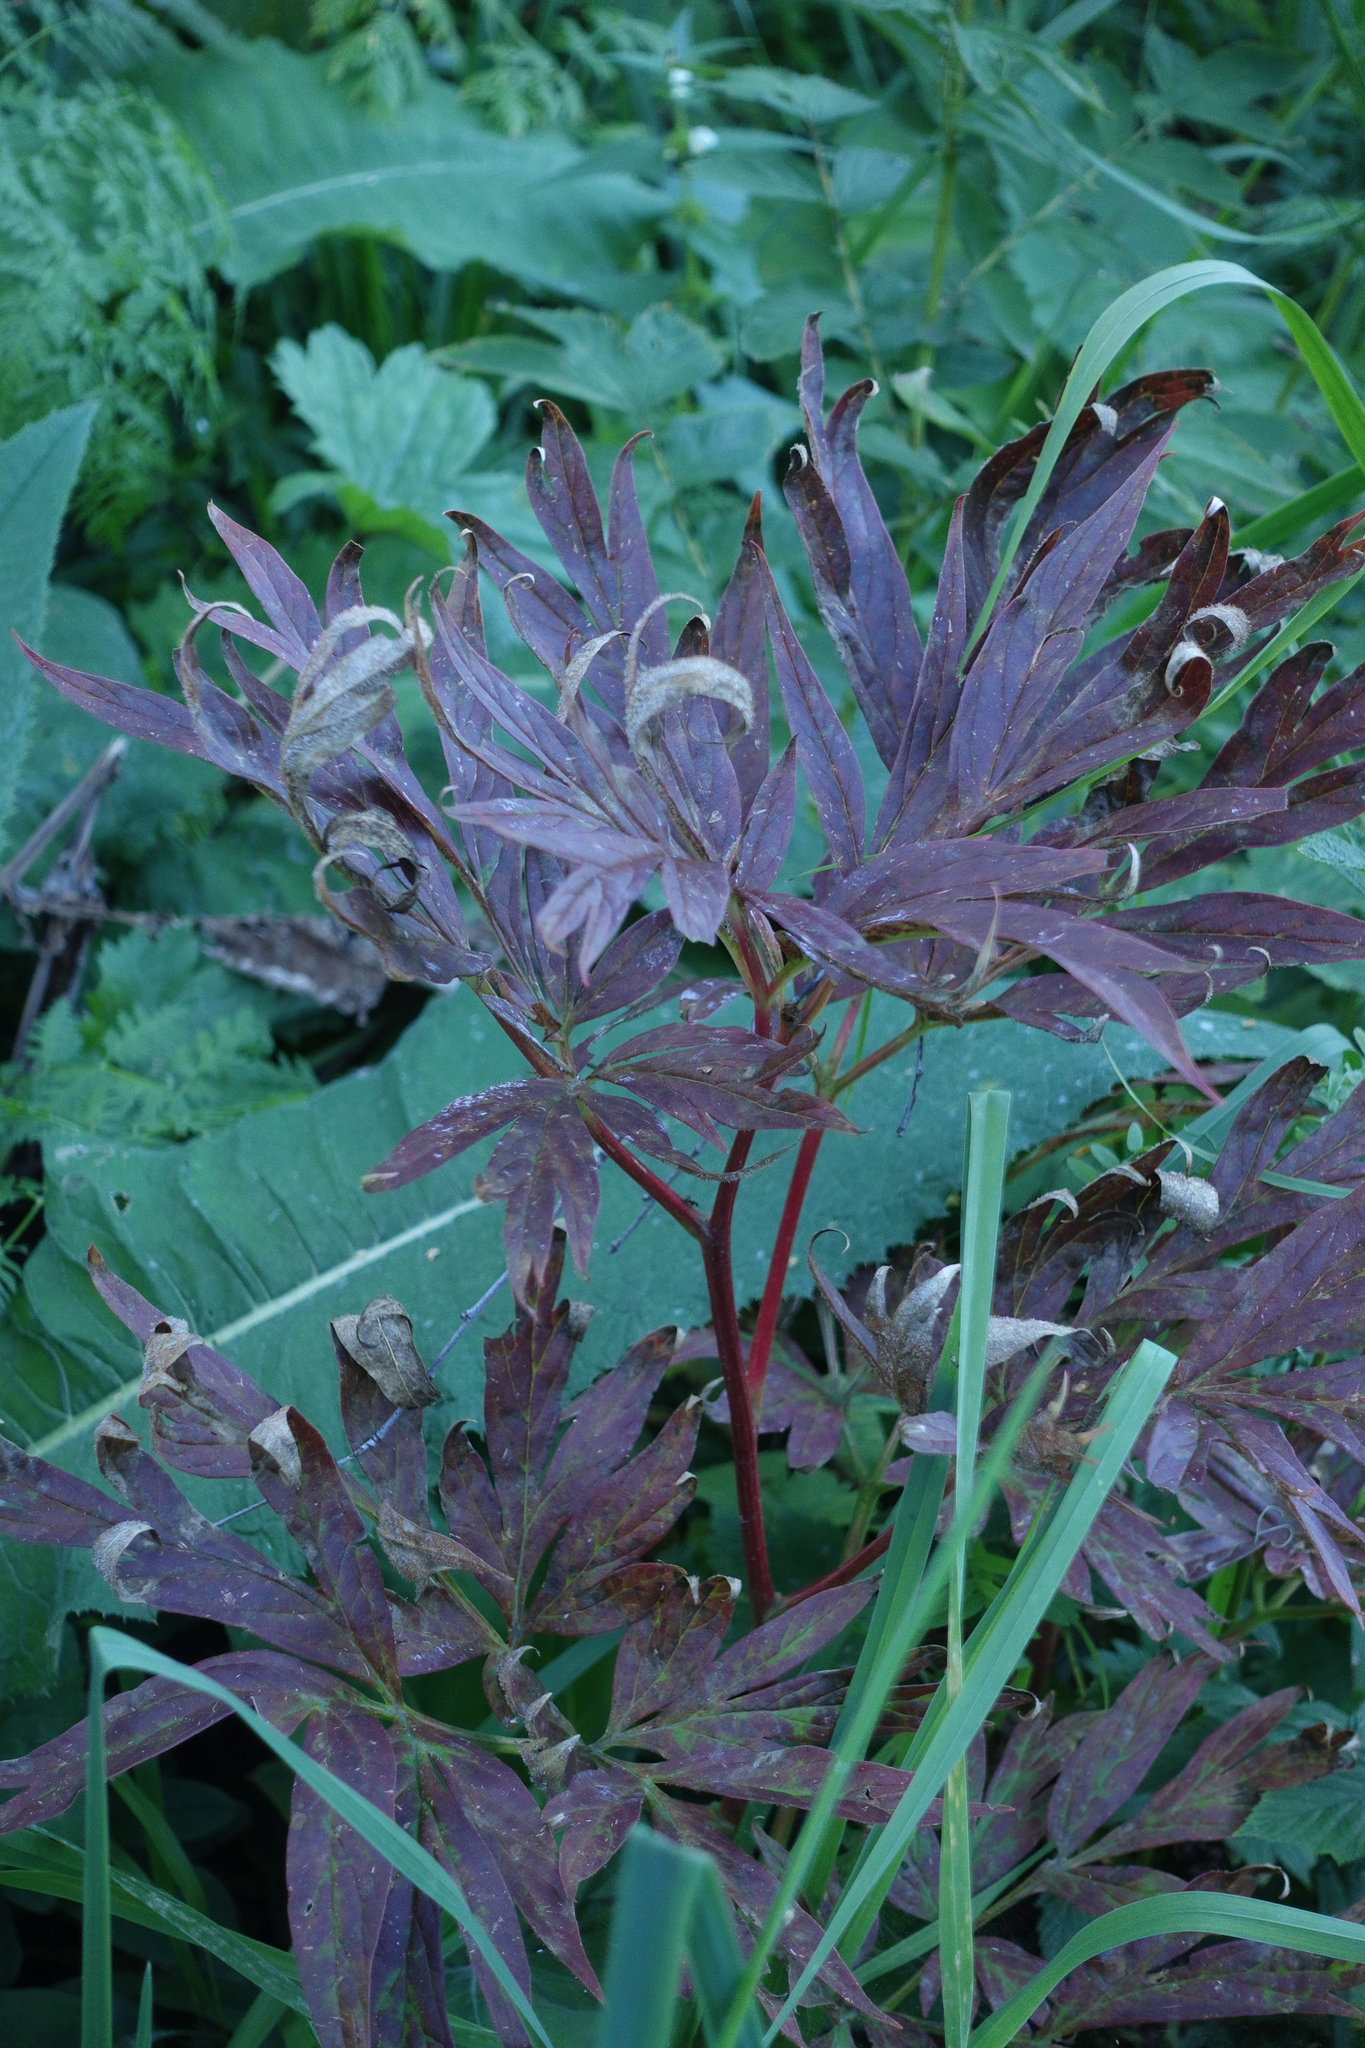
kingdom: Plantae
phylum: Tracheophyta
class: Magnoliopsida
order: Saxifragales
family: Paeoniaceae
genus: Paeonia
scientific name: Paeonia anomala
